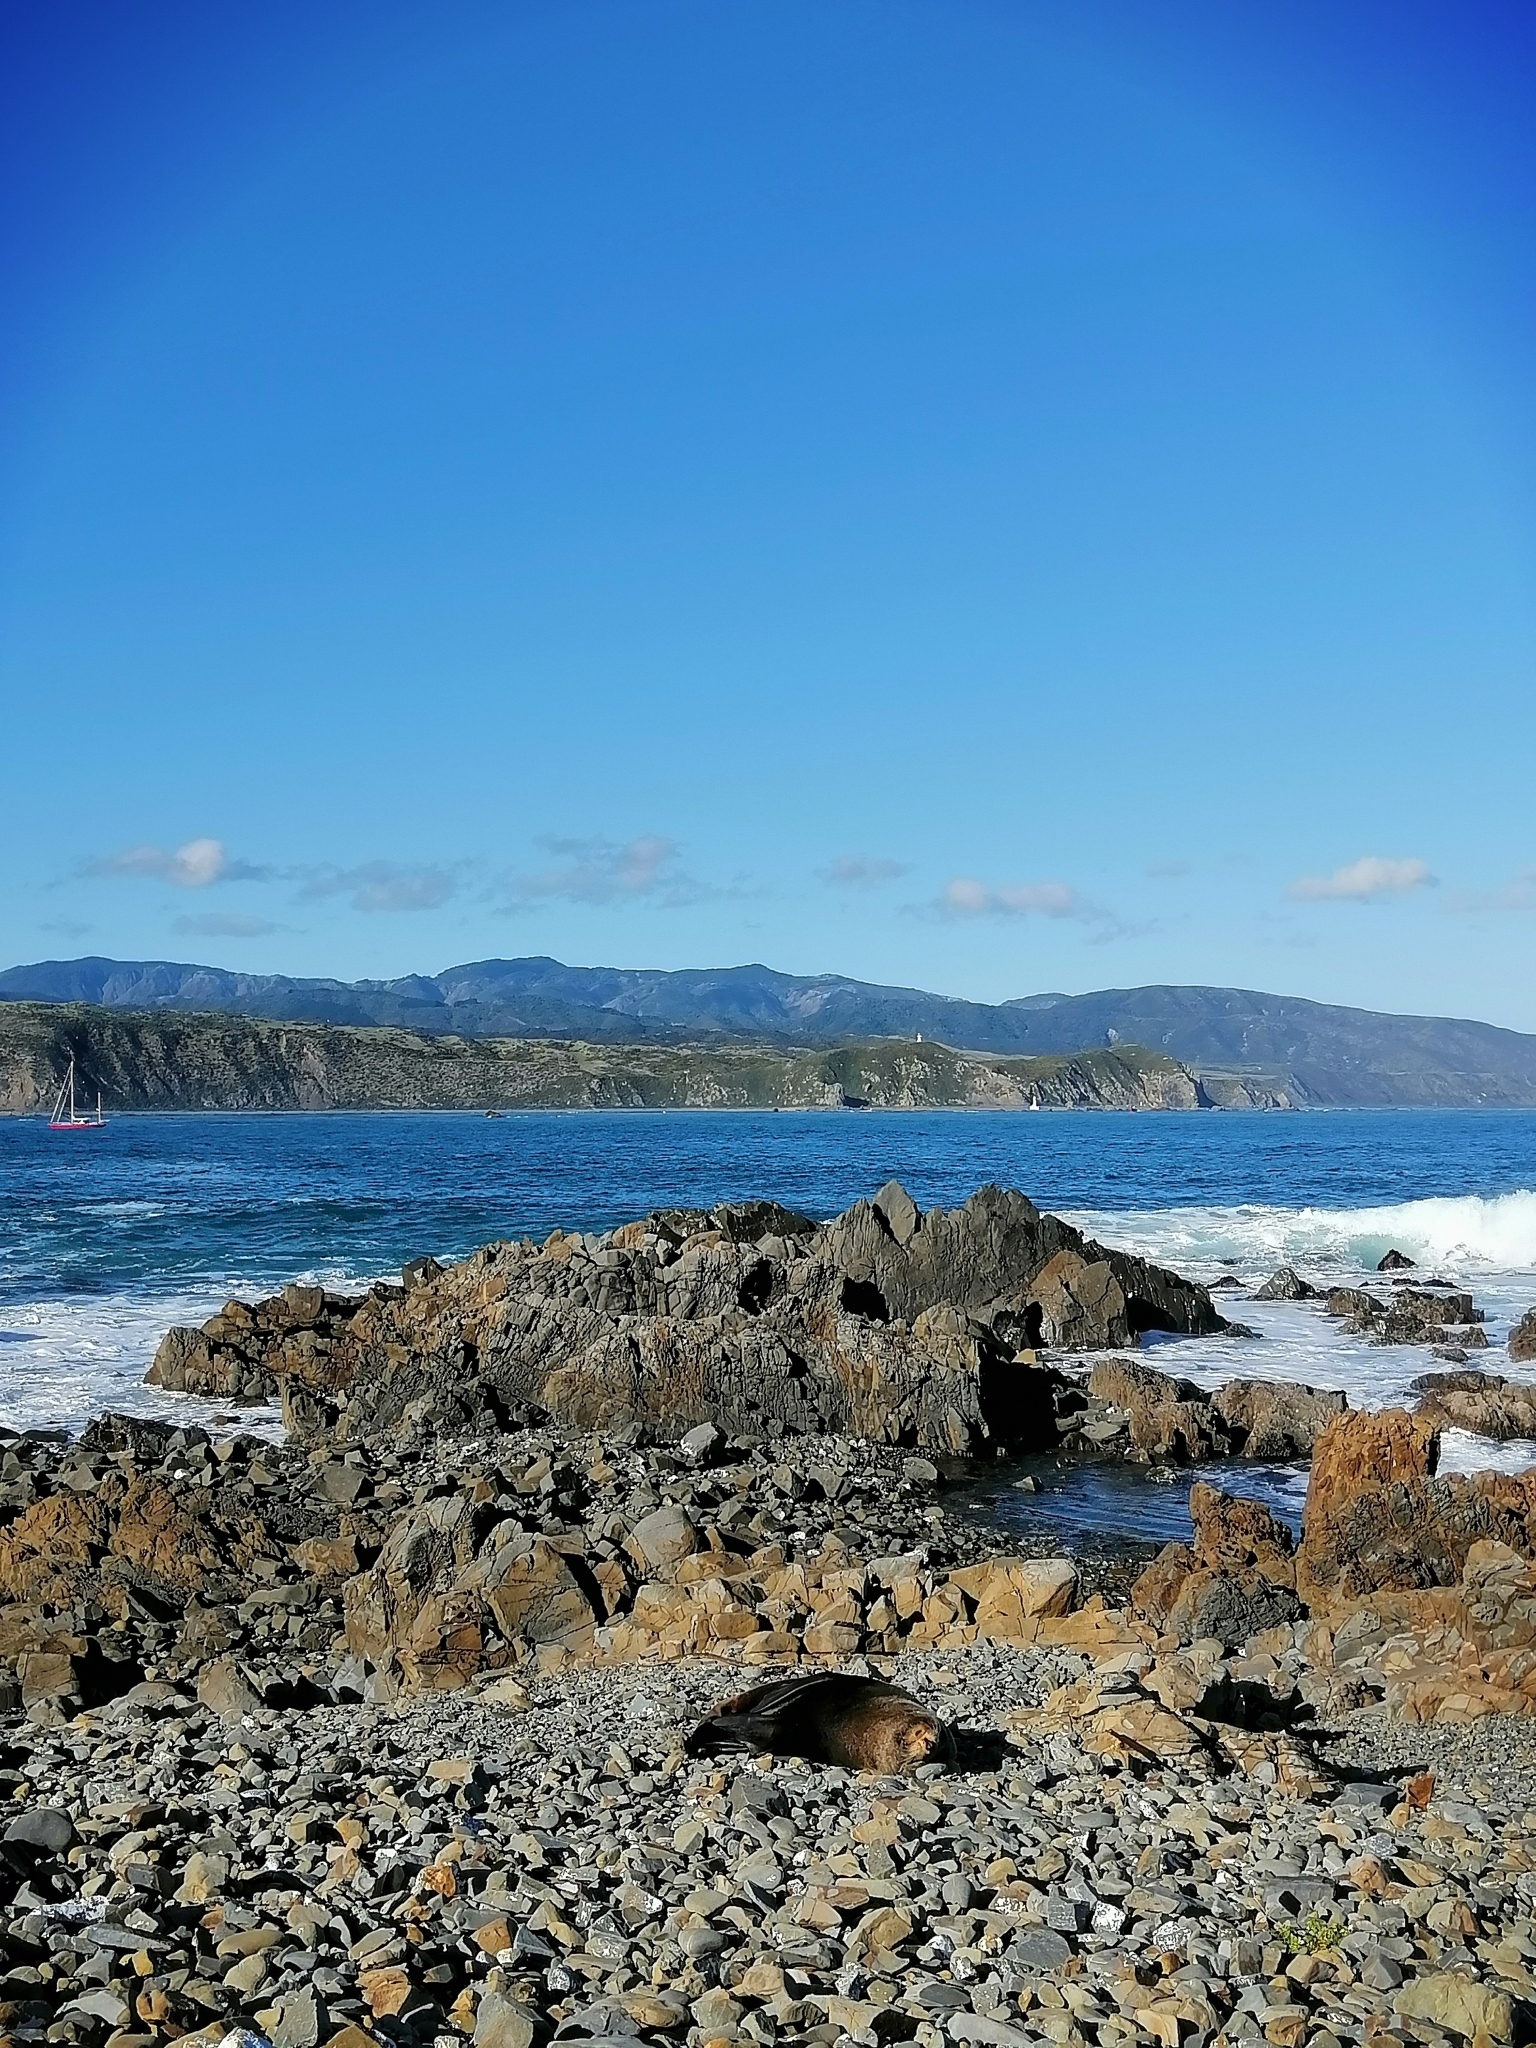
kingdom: Animalia
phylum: Chordata
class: Mammalia
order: Carnivora
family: Otariidae
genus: Arctocephalus
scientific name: Arctocephalus forsteri
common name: New zealand fur seal
